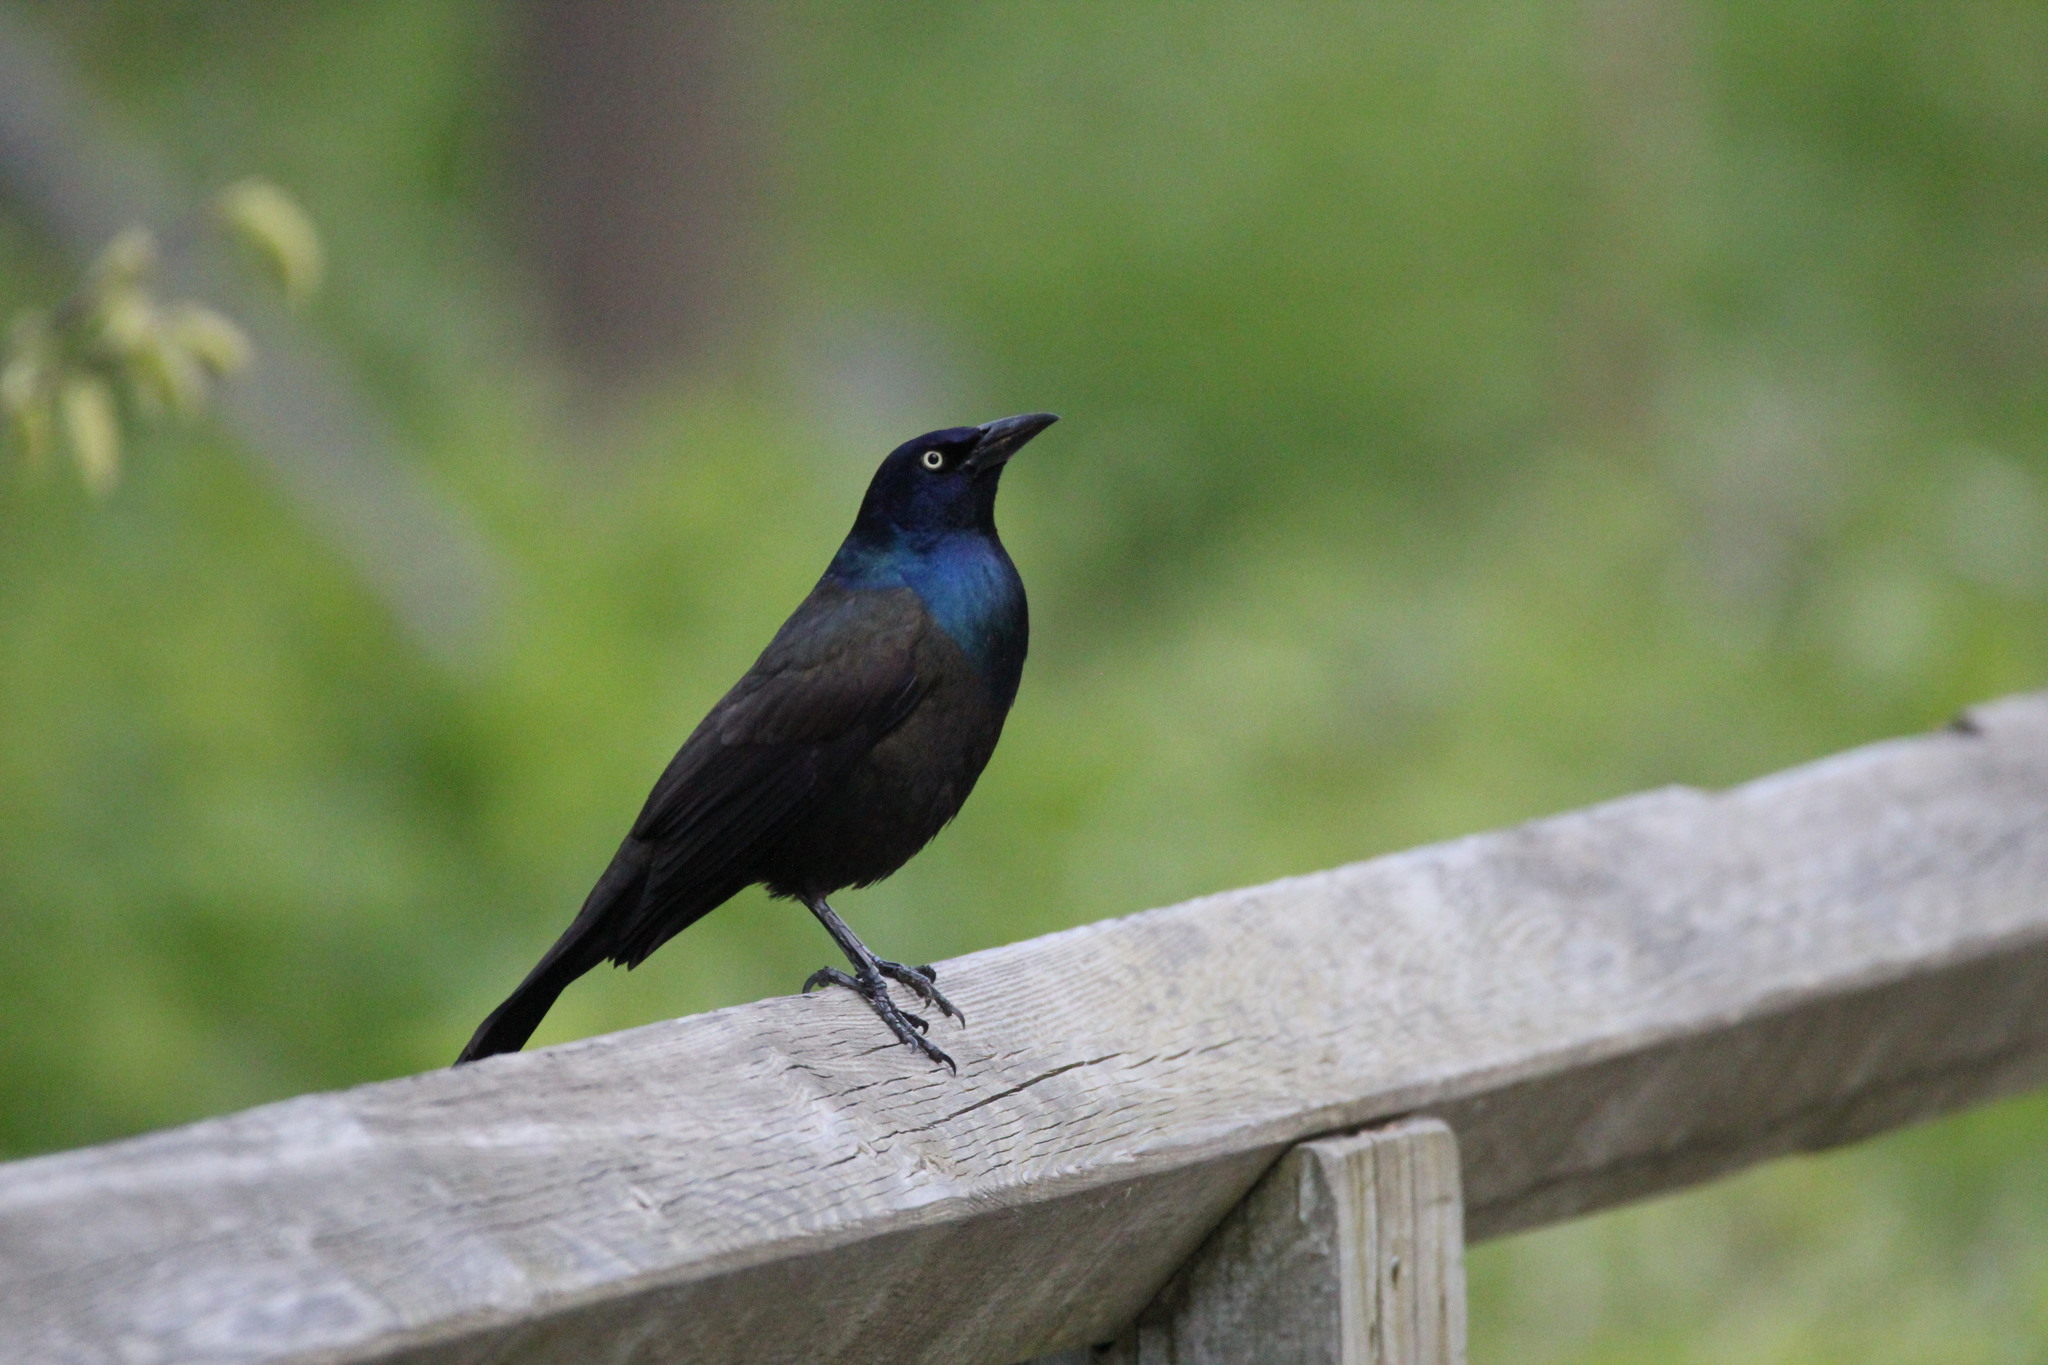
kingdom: Animalia
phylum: Chordata
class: Aves
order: Passeriformes
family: Icteridae
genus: Quiscalus
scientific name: Quiscalus quiscula
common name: Common grackle
